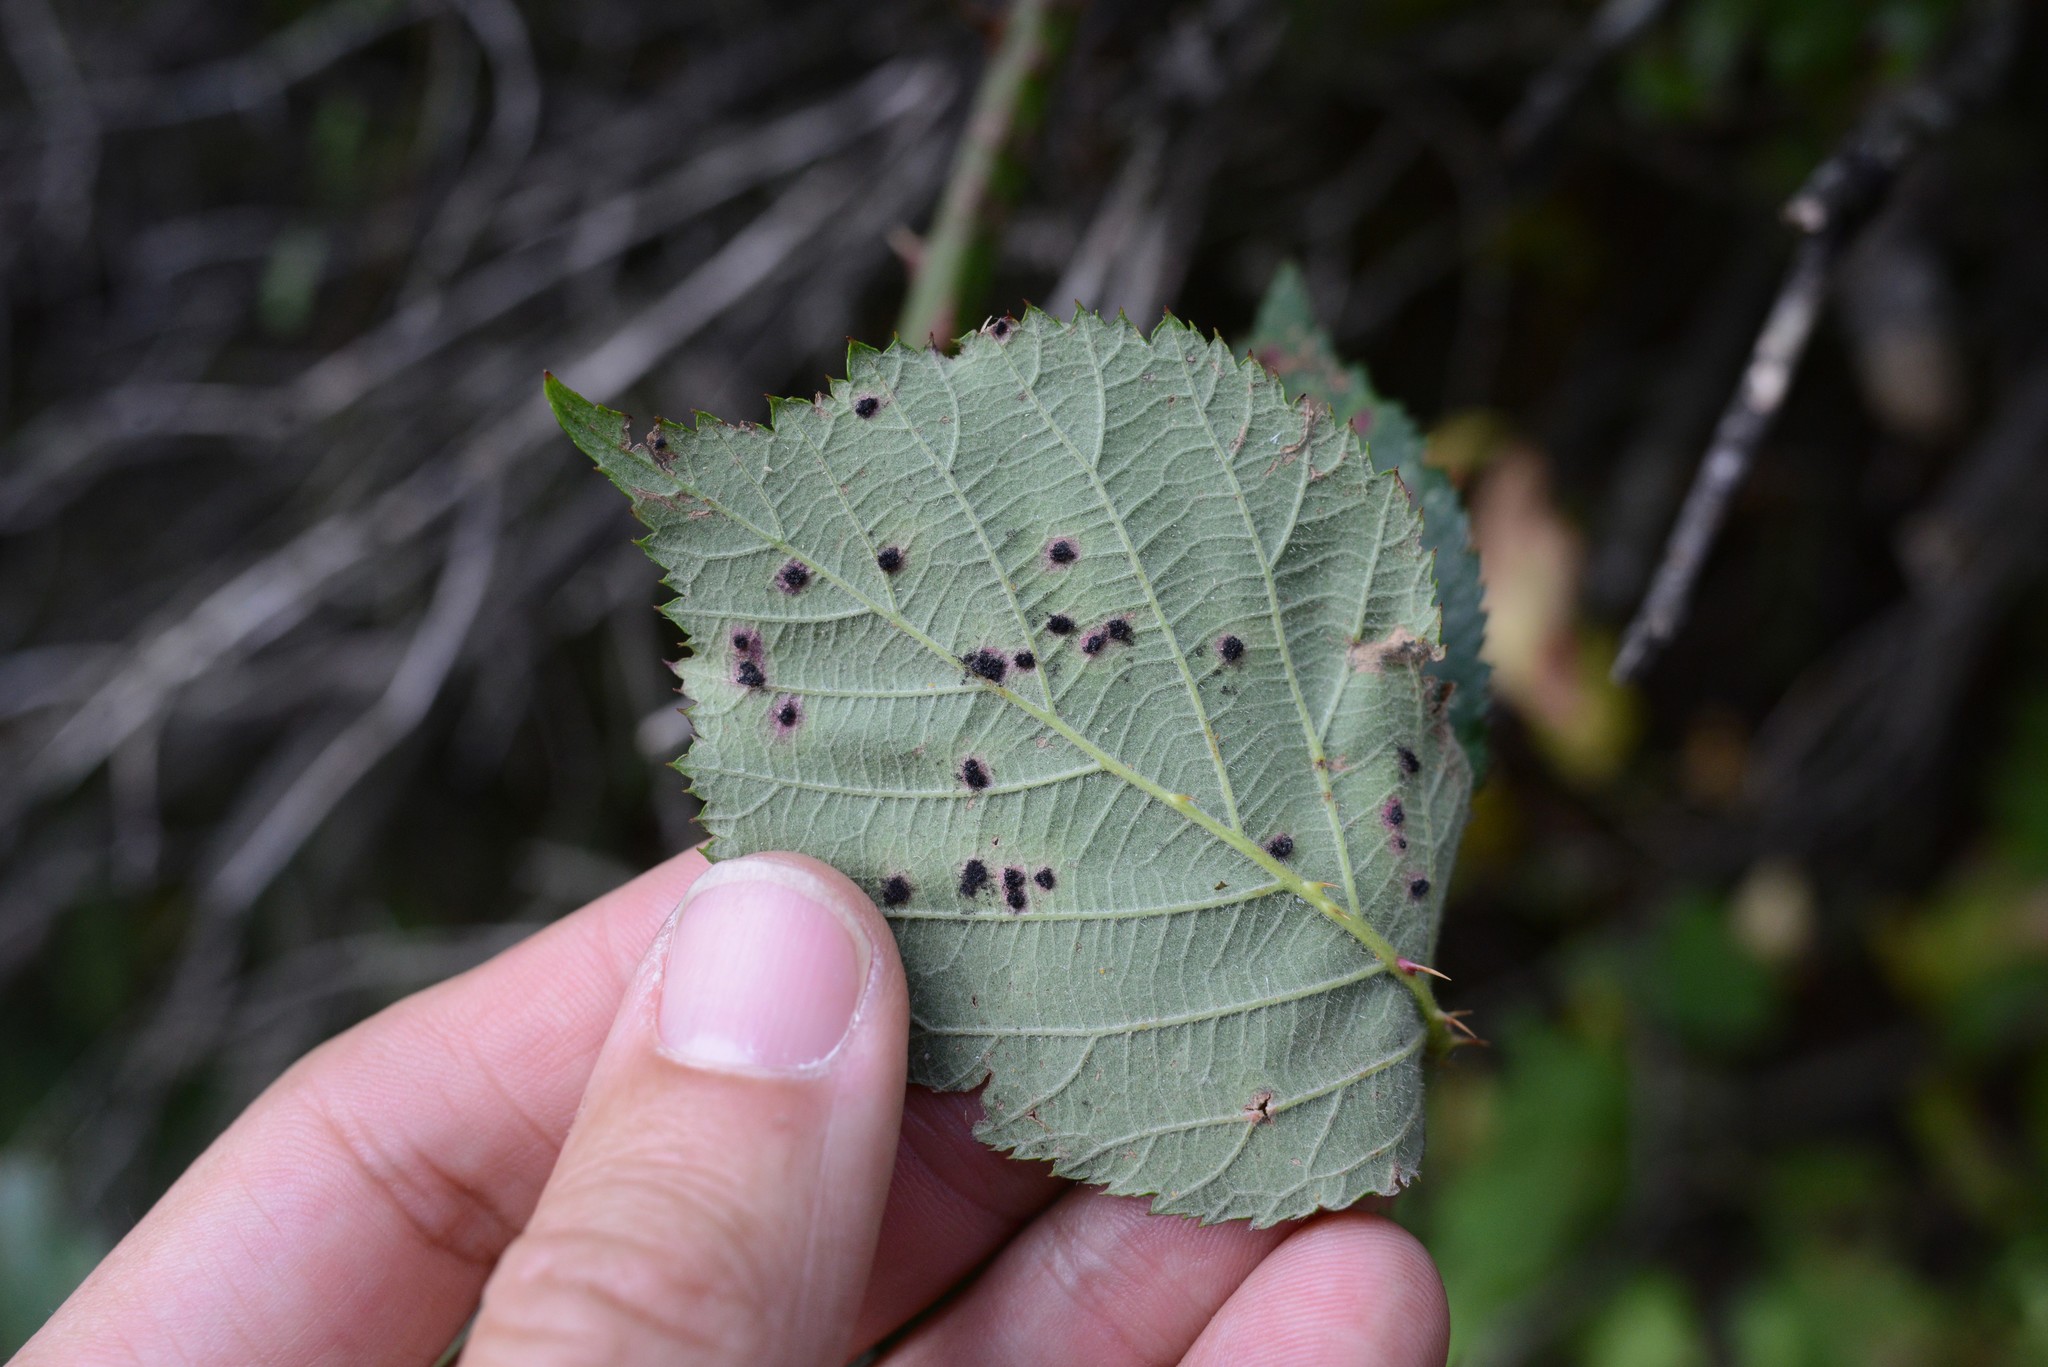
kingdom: Fungi
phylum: Basidiomycota
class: Pucciniomycetes
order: Pucciniales
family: Phragmidiaceae
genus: Phragmidium
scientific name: Phragmidium violaceum
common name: Violet bramble rust
